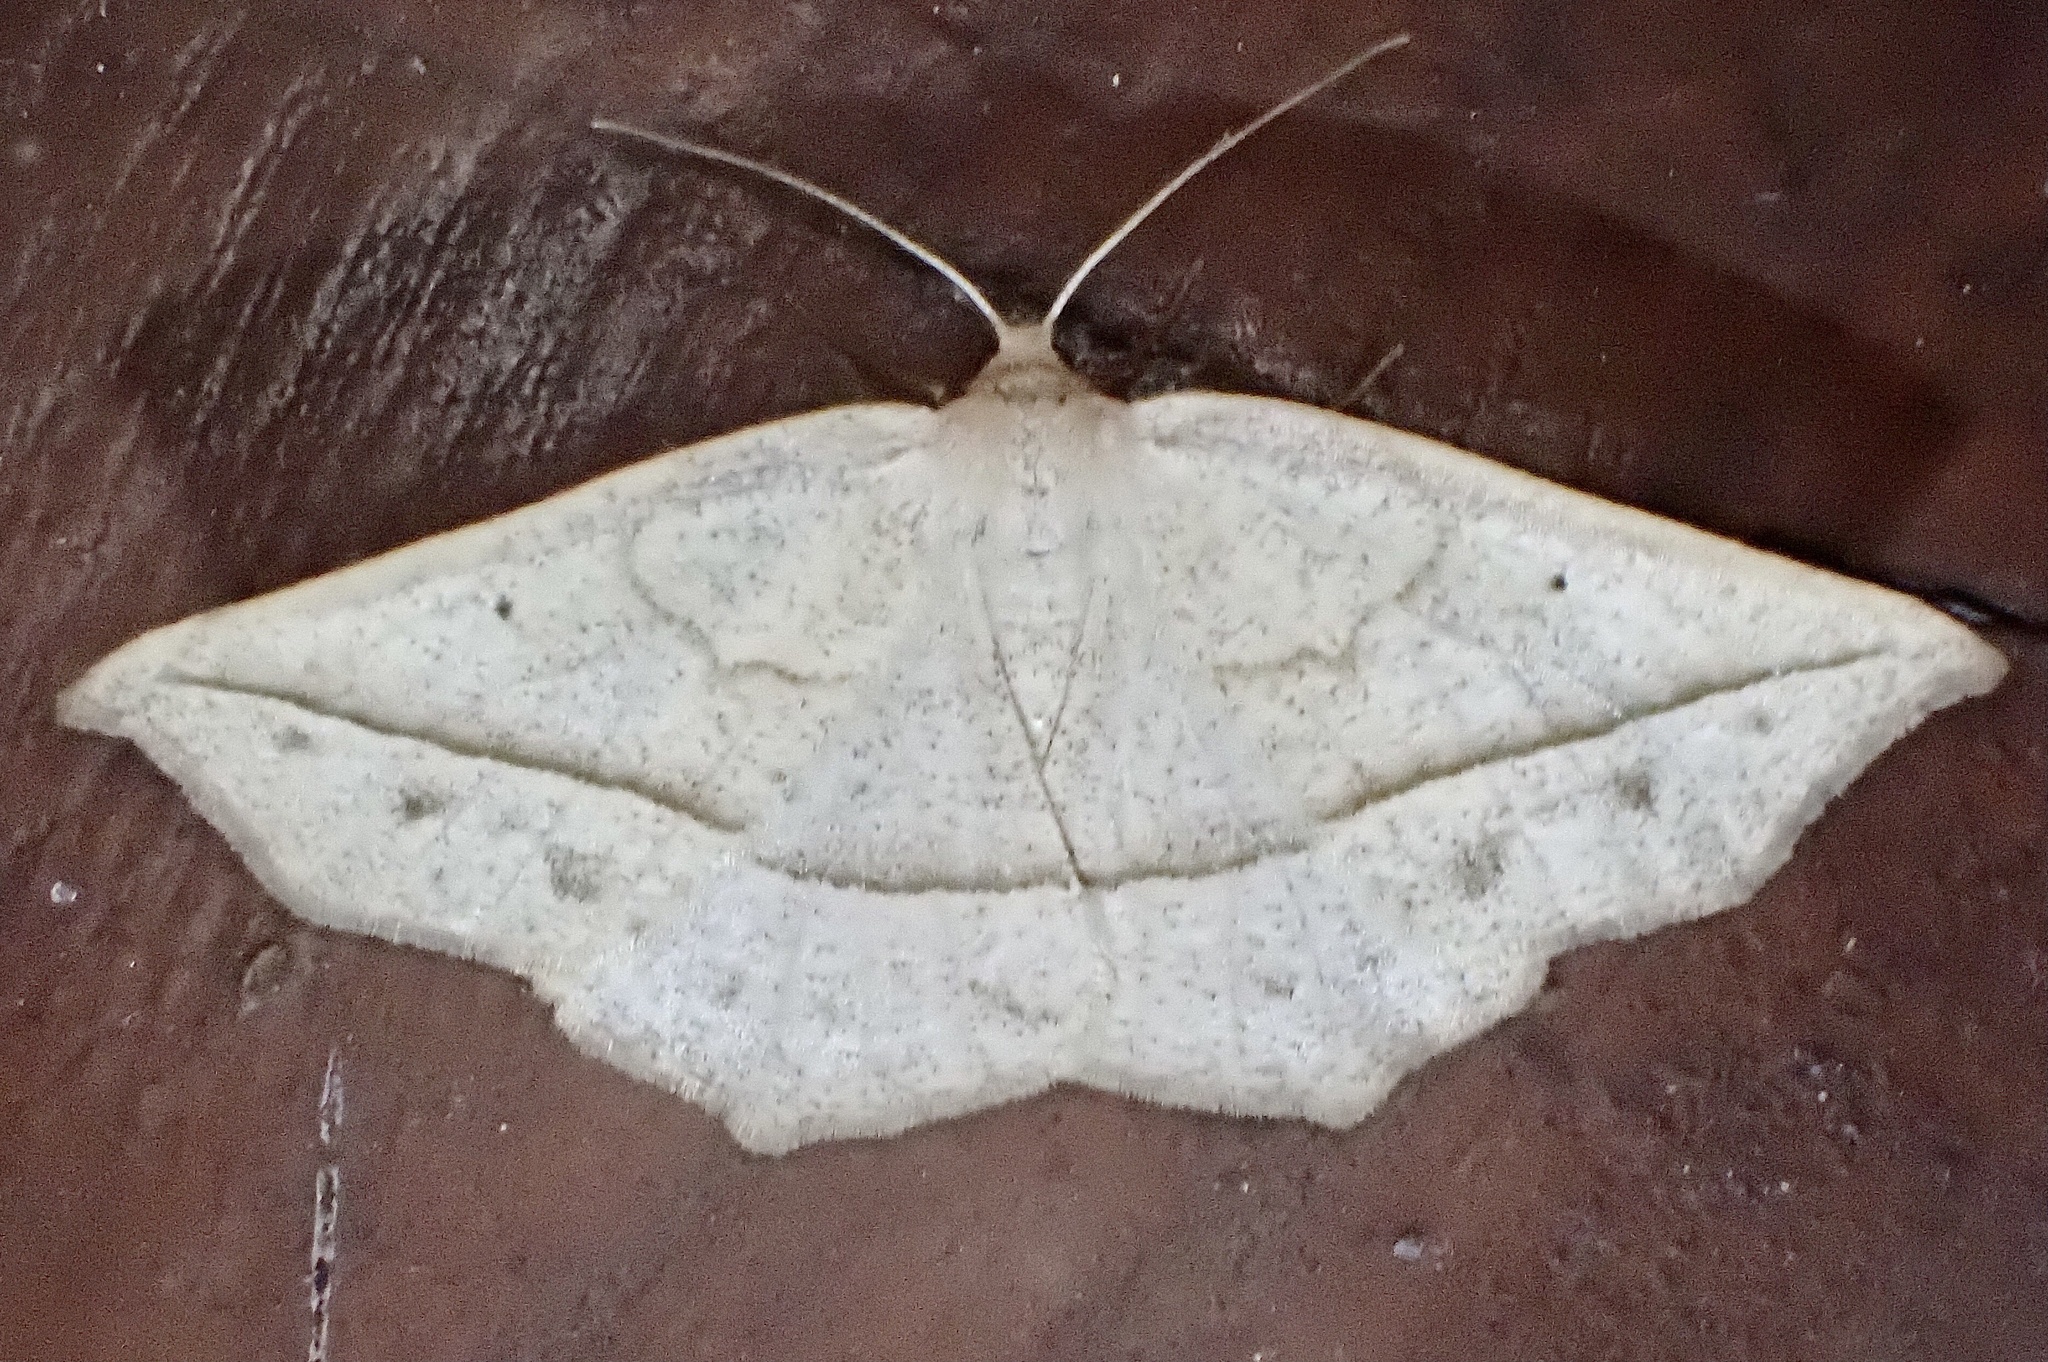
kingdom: Animalia
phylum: Arthropoda
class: Insecta
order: Lepidoptera
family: Geometridae
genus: Eusarca
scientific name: Eusarca confusaria
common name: Confused eusarca
